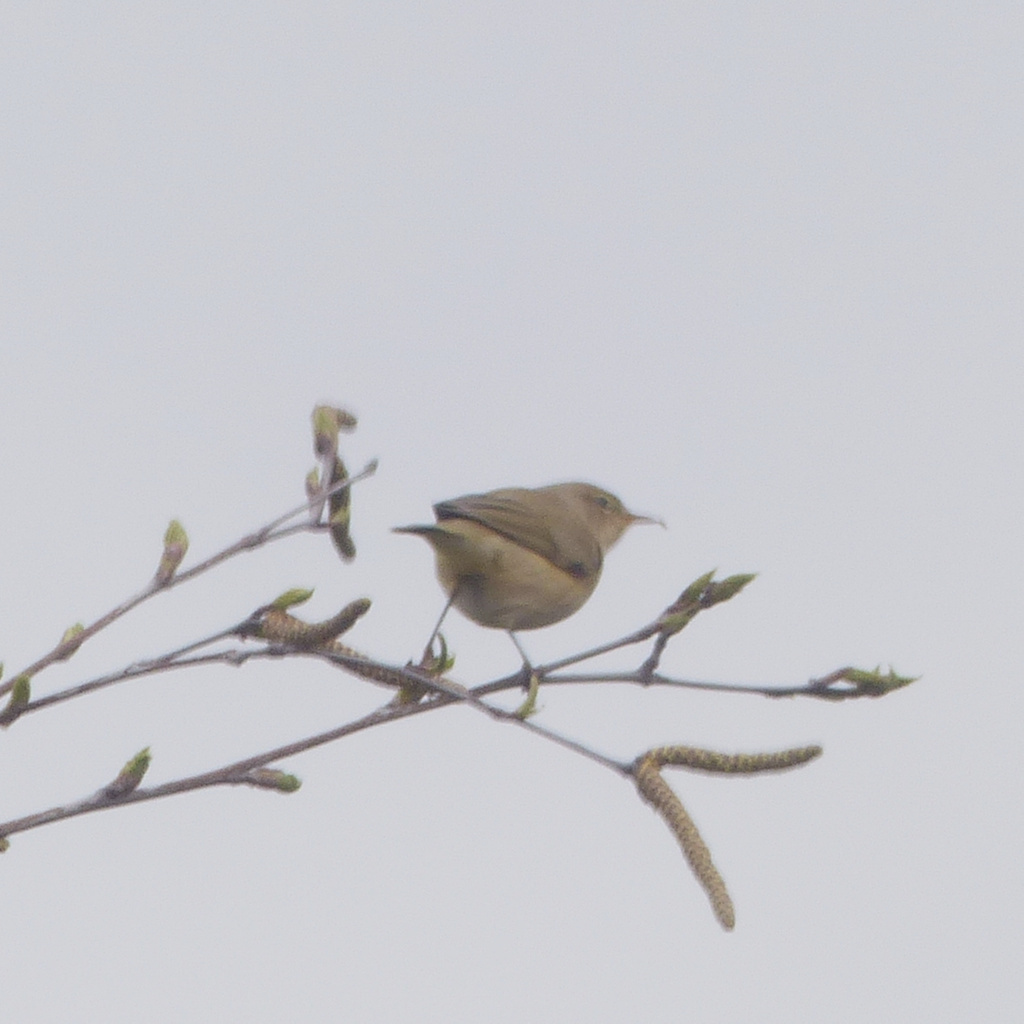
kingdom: Animalia
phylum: Chordata
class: Aves
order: Passeriformes
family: Phylloscopidae
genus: Phylloscopus
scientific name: Phylloscopus collybita
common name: Common chiffchaff
